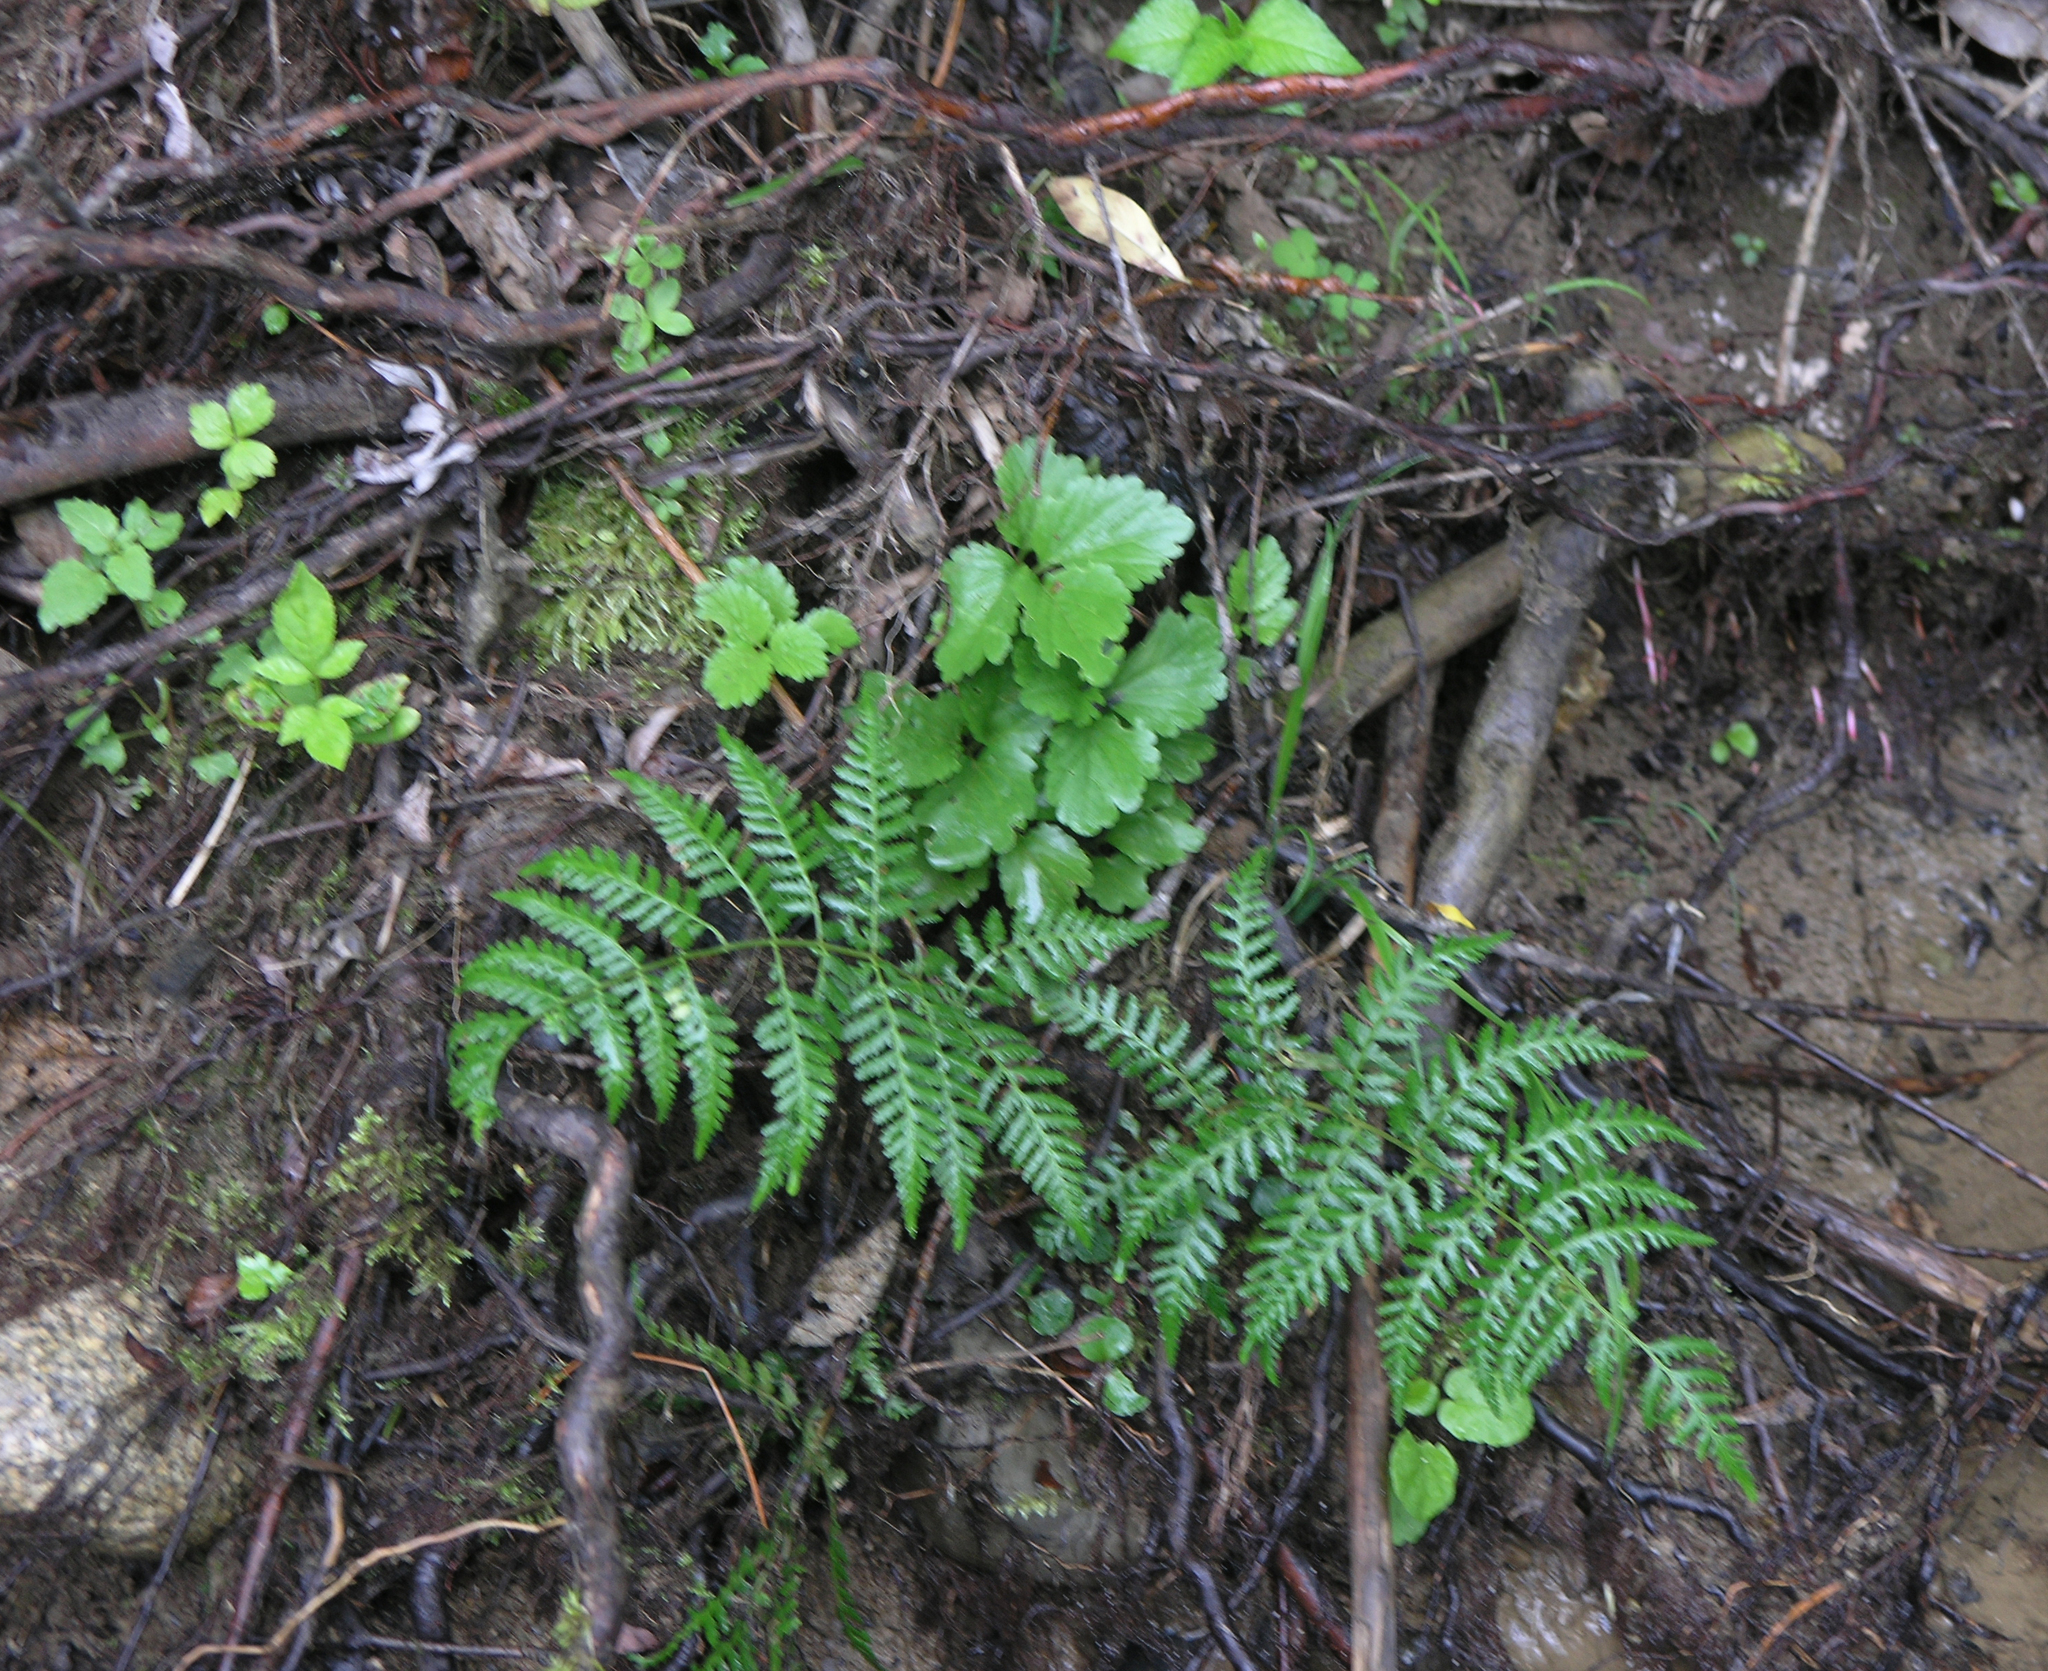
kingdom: Plantae
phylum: Tracheophyta
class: Polypodiopsida
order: Polypodiales
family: Athyriaceae
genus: Athyrium
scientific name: Athyrium yokoscense
